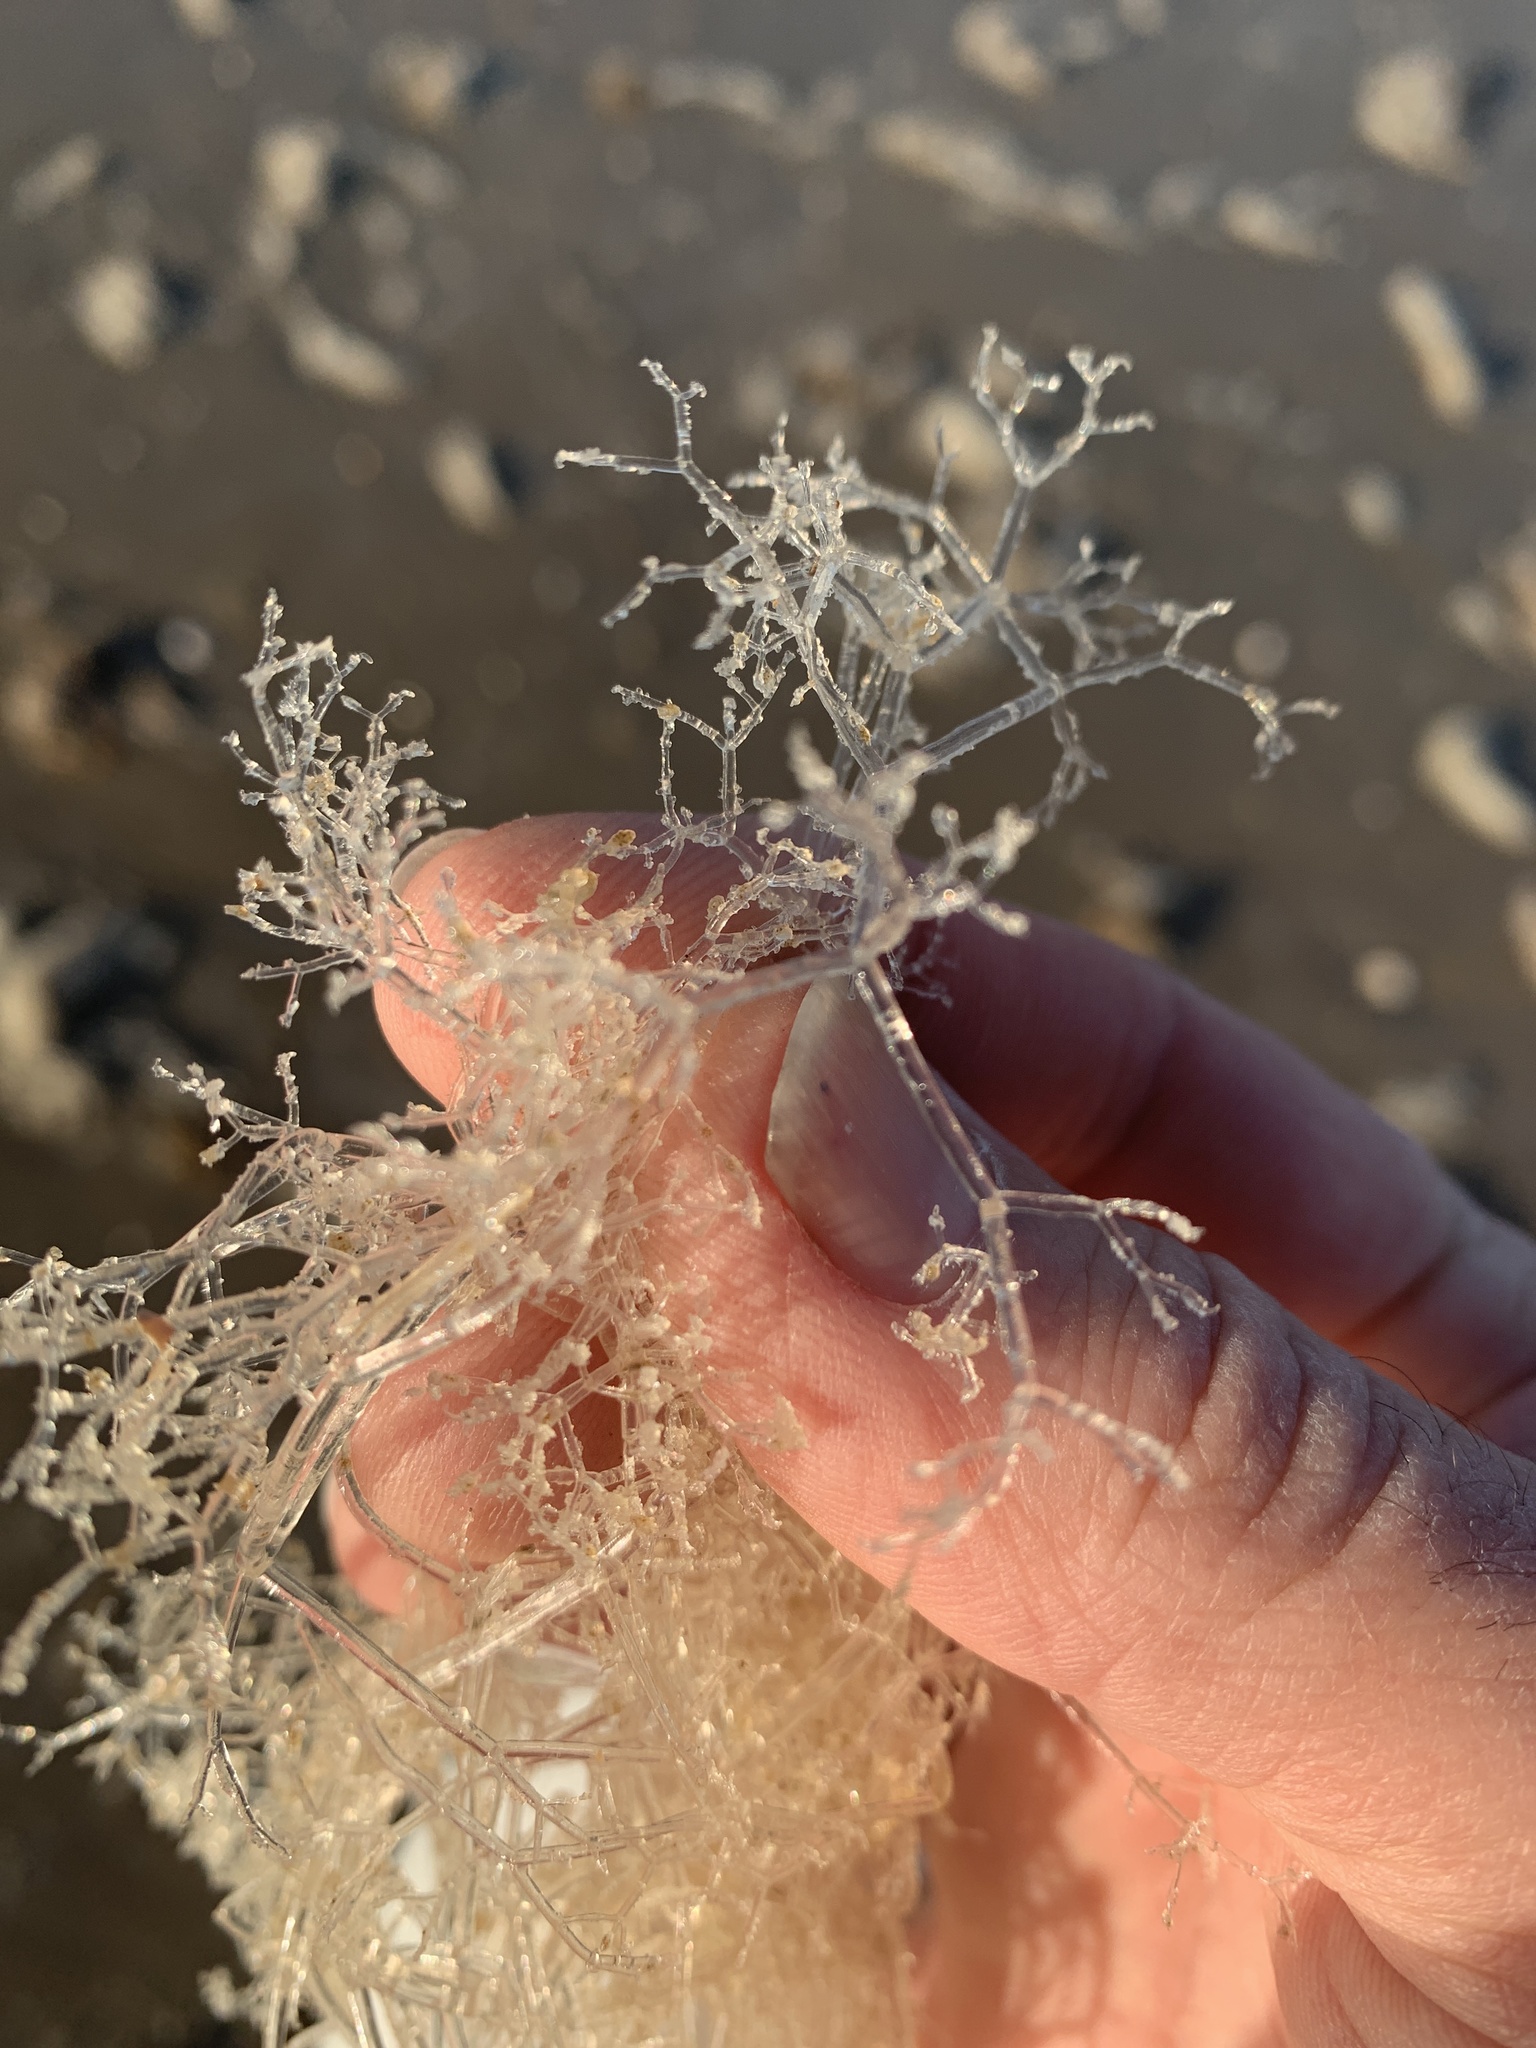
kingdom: Animalia
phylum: Bryozoa
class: Gymnolaemata
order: Ctenostomatida
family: Vesiculariidae
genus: Amathia
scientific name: Amathia verticillata
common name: Whorled zoobotryon
